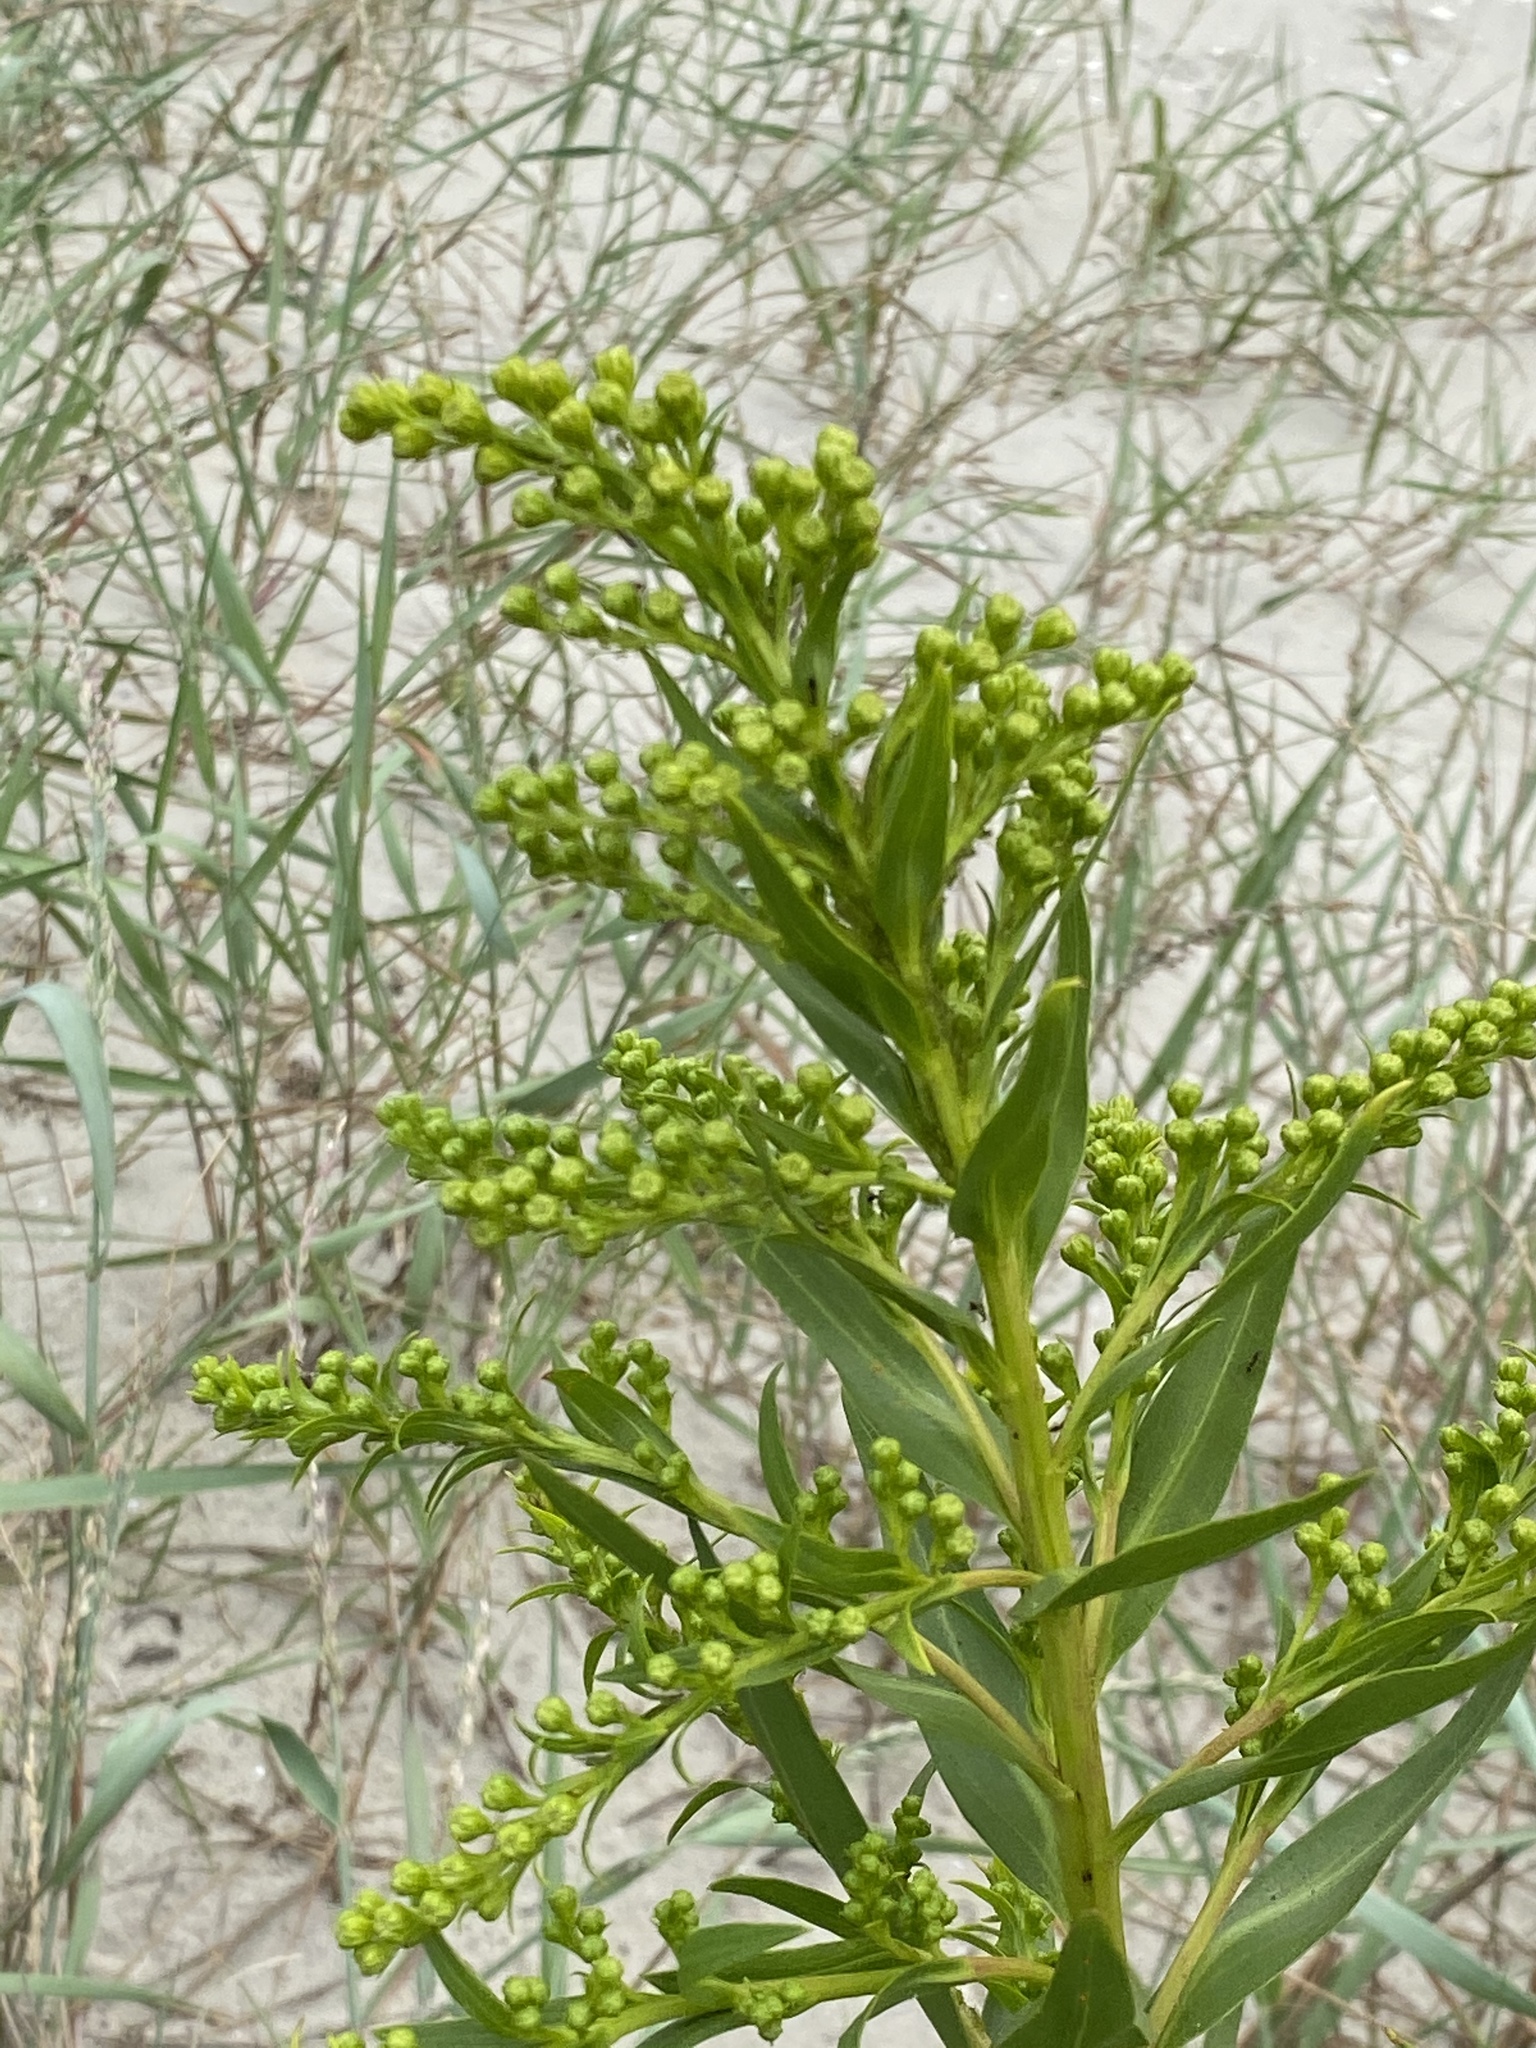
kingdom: Plantae
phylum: Tracheophyta
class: Magnoliopsida
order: Asterales
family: Asteraceae
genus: Solidago
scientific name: Solidago sempervirens
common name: Salt-marsh goldenrod
